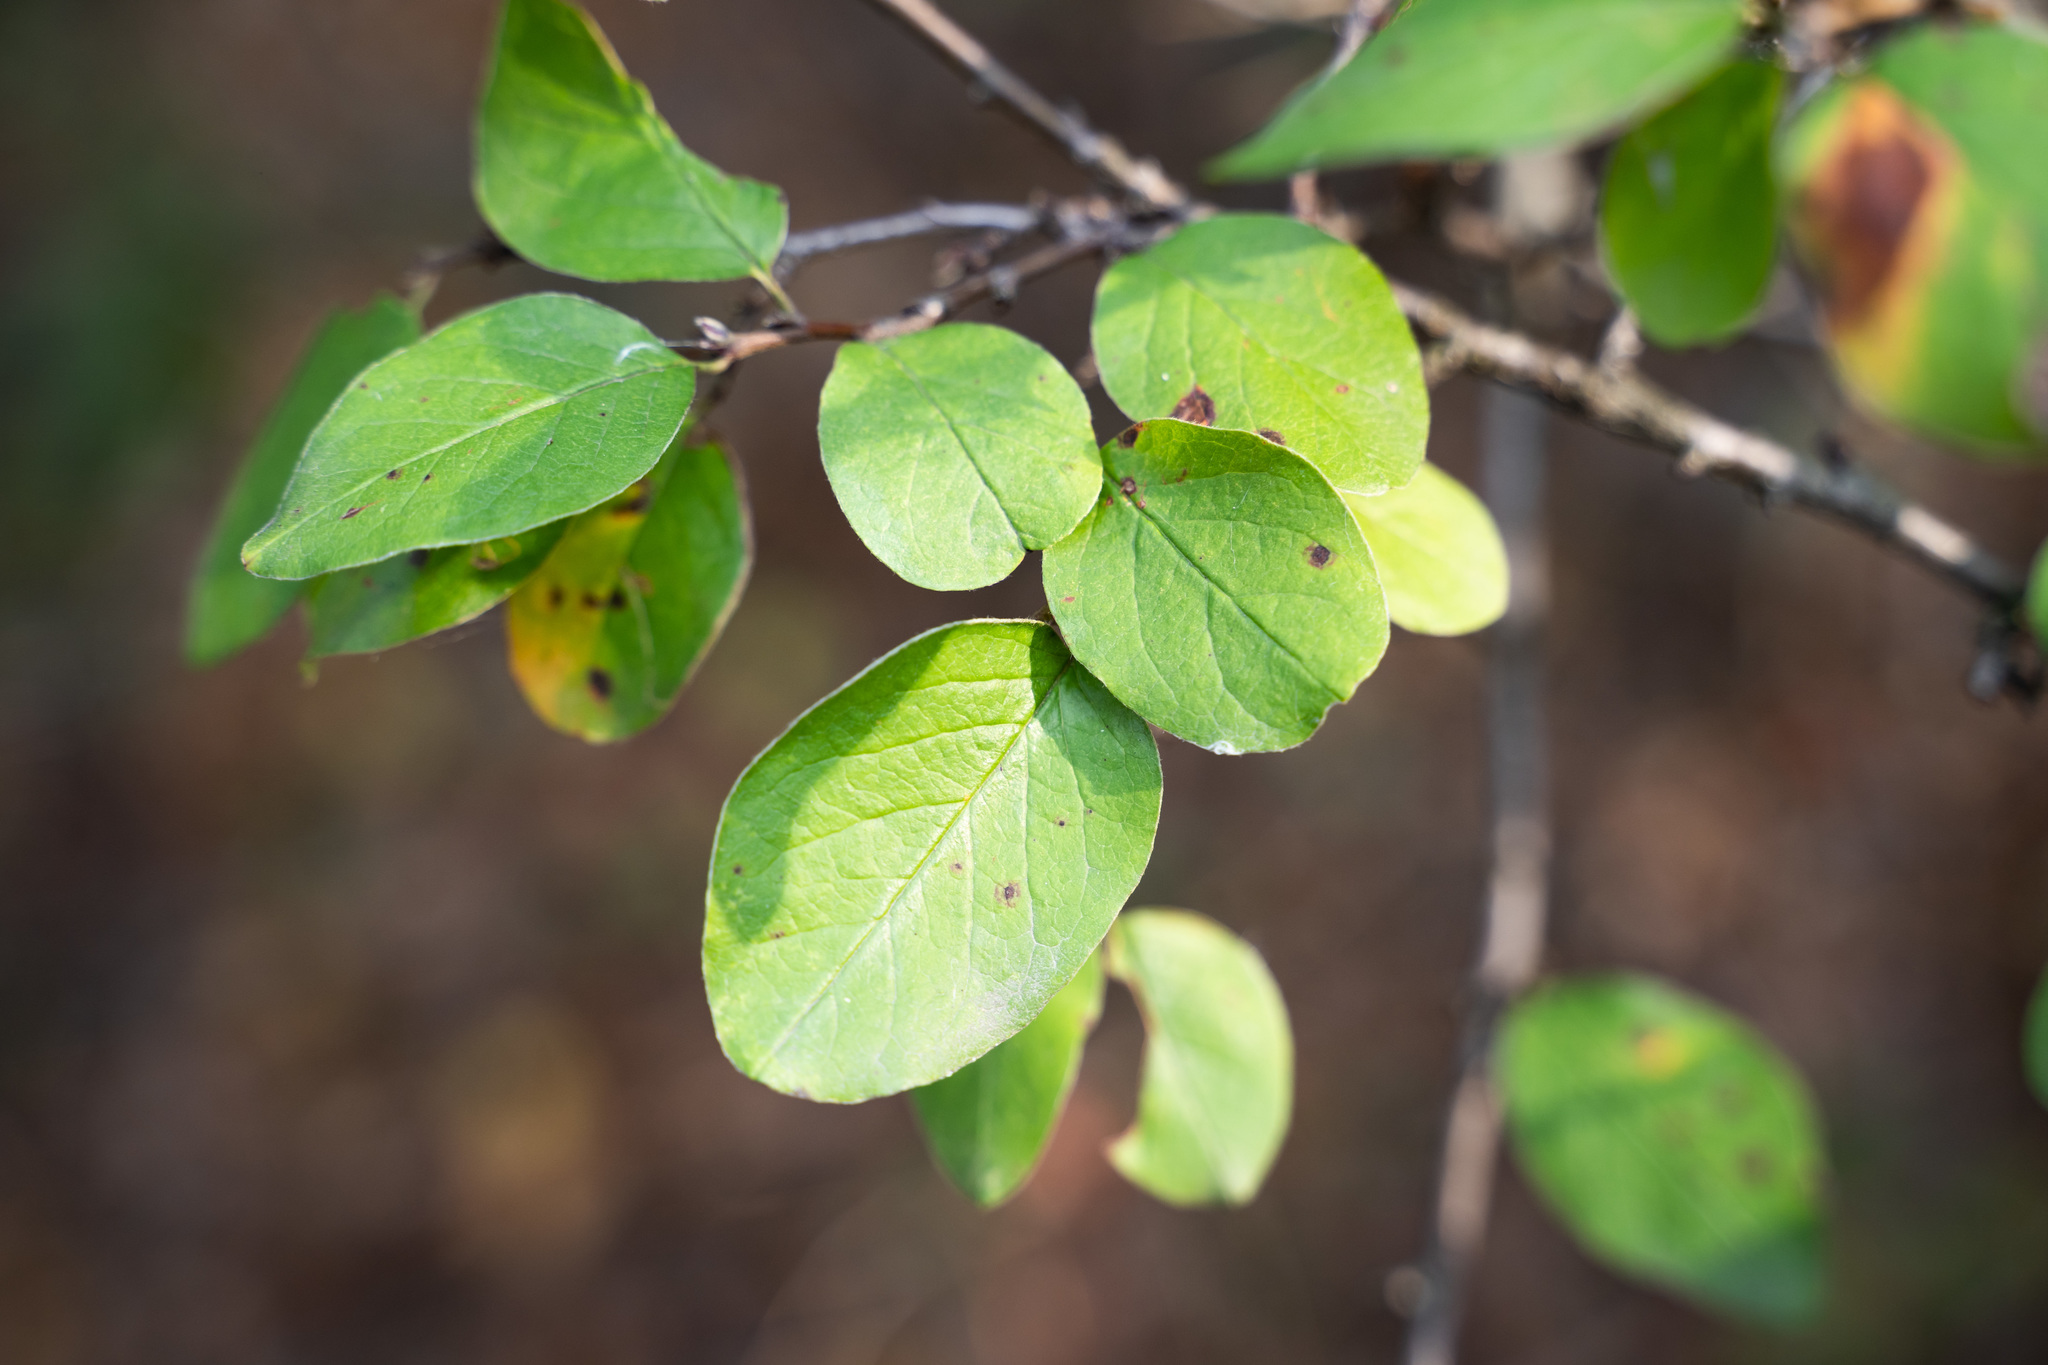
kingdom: Plantae
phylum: Tracheophyta
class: Magnoliopsida
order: Rosales
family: Rosaceae
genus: Cotoneaster
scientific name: Cotoneaster melanocarpus
